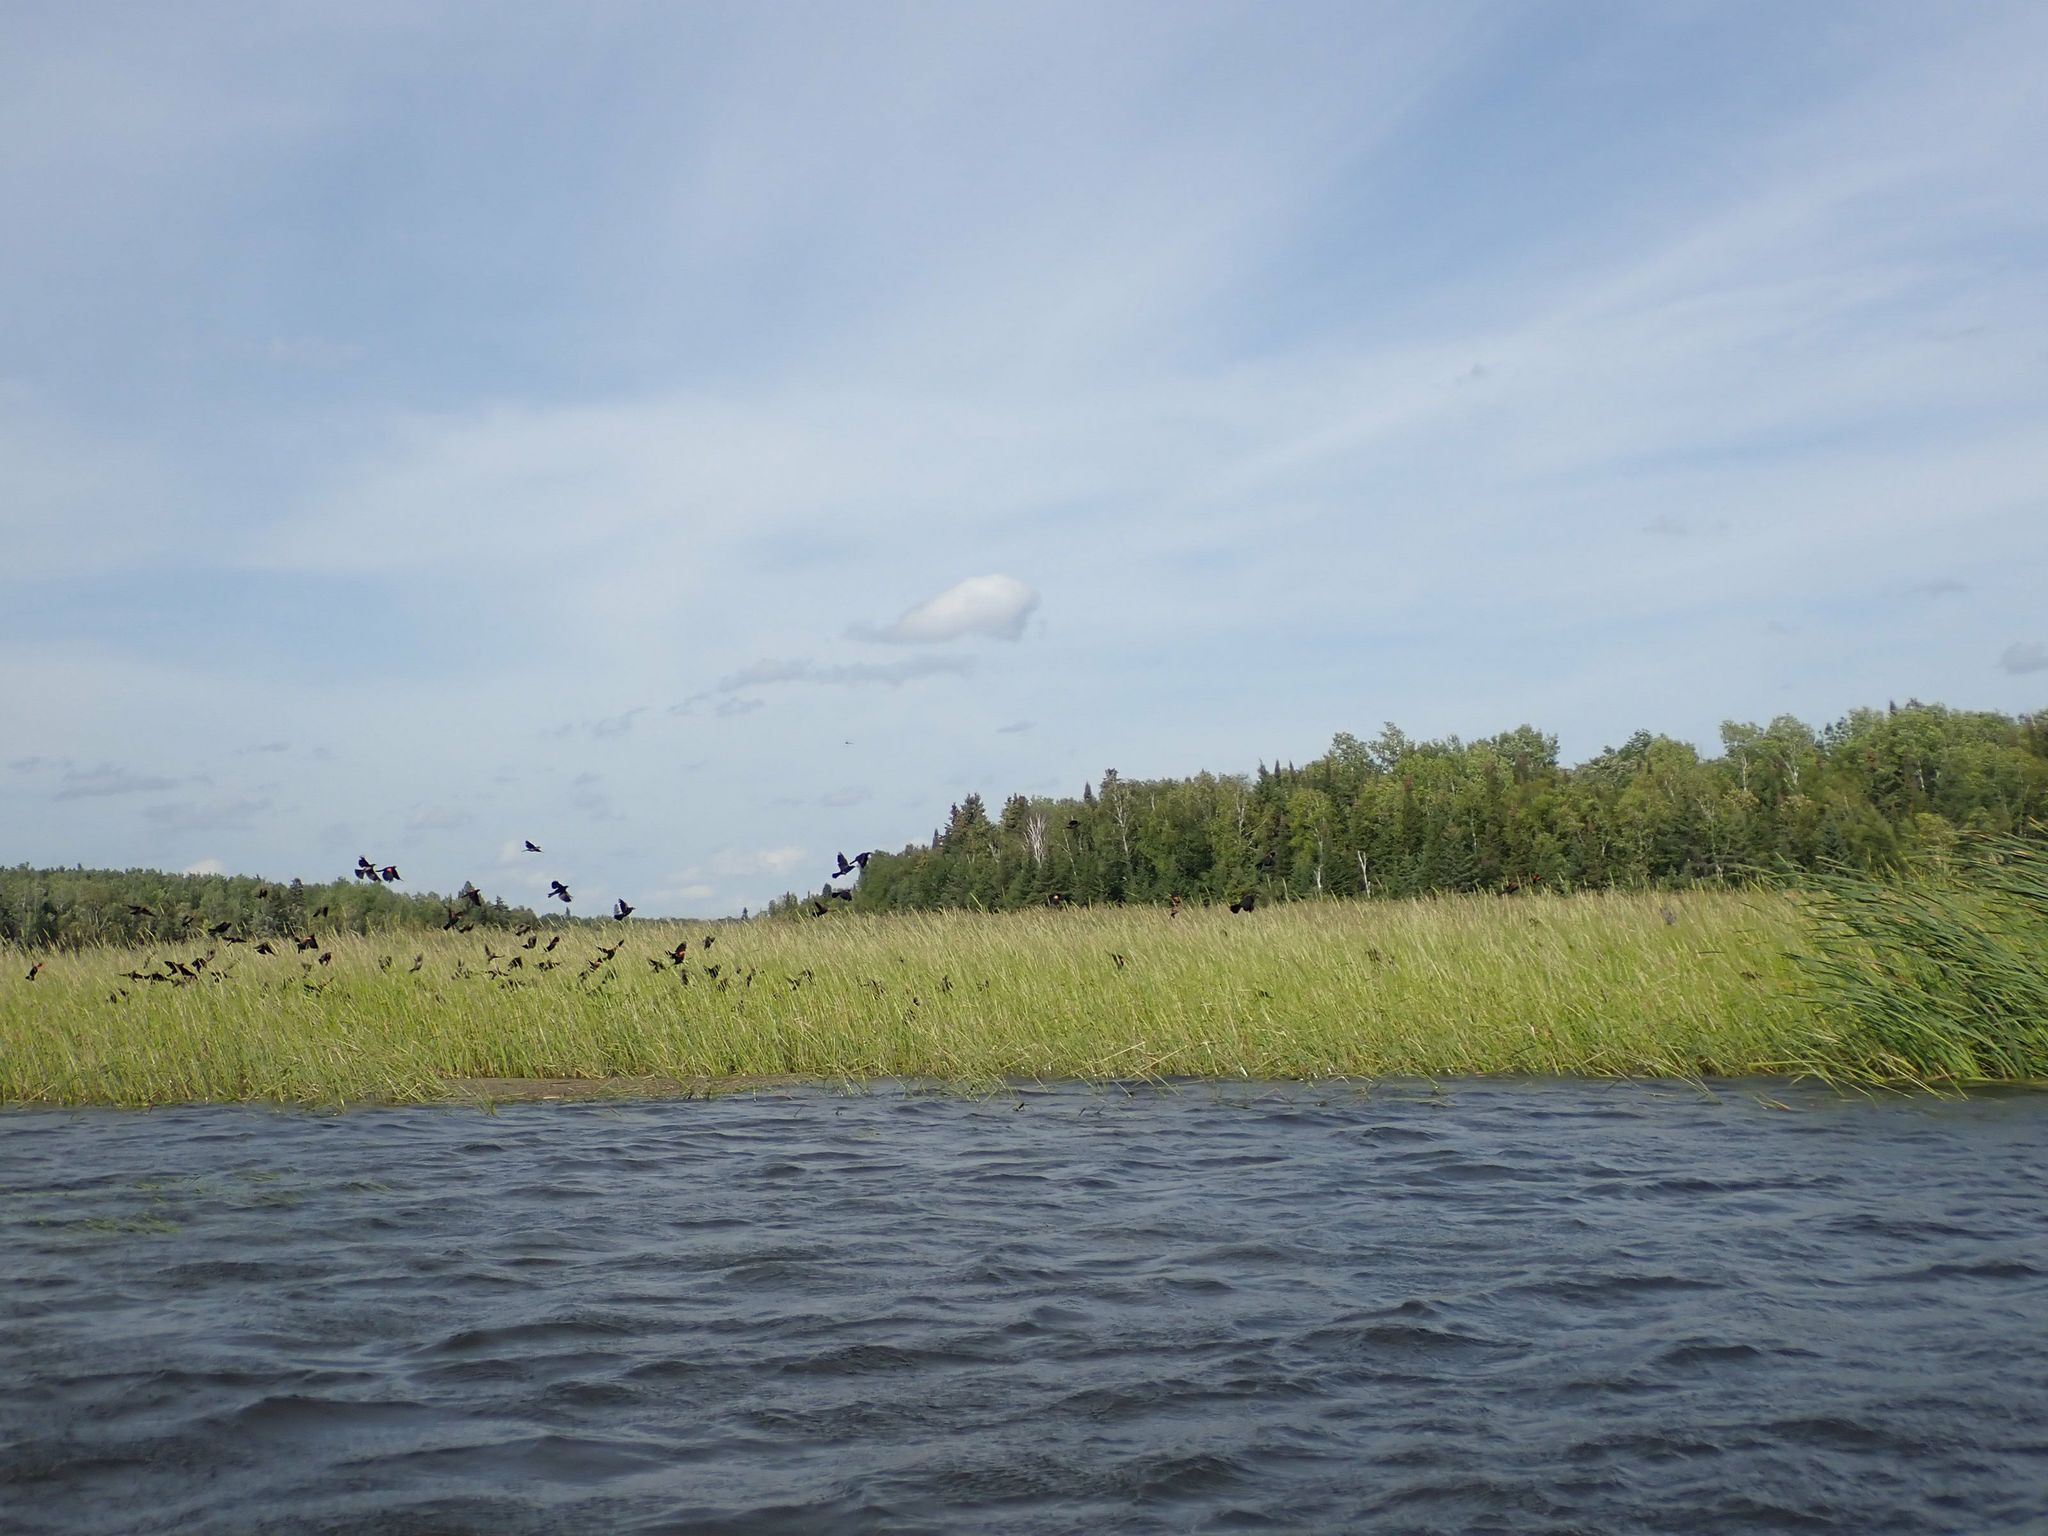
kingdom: Animalia
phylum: Chordata
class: Aves
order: Passeriformes
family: Icteridae
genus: Agelaius
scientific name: Agelaius phoeniceus
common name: Red-winged blackbird
